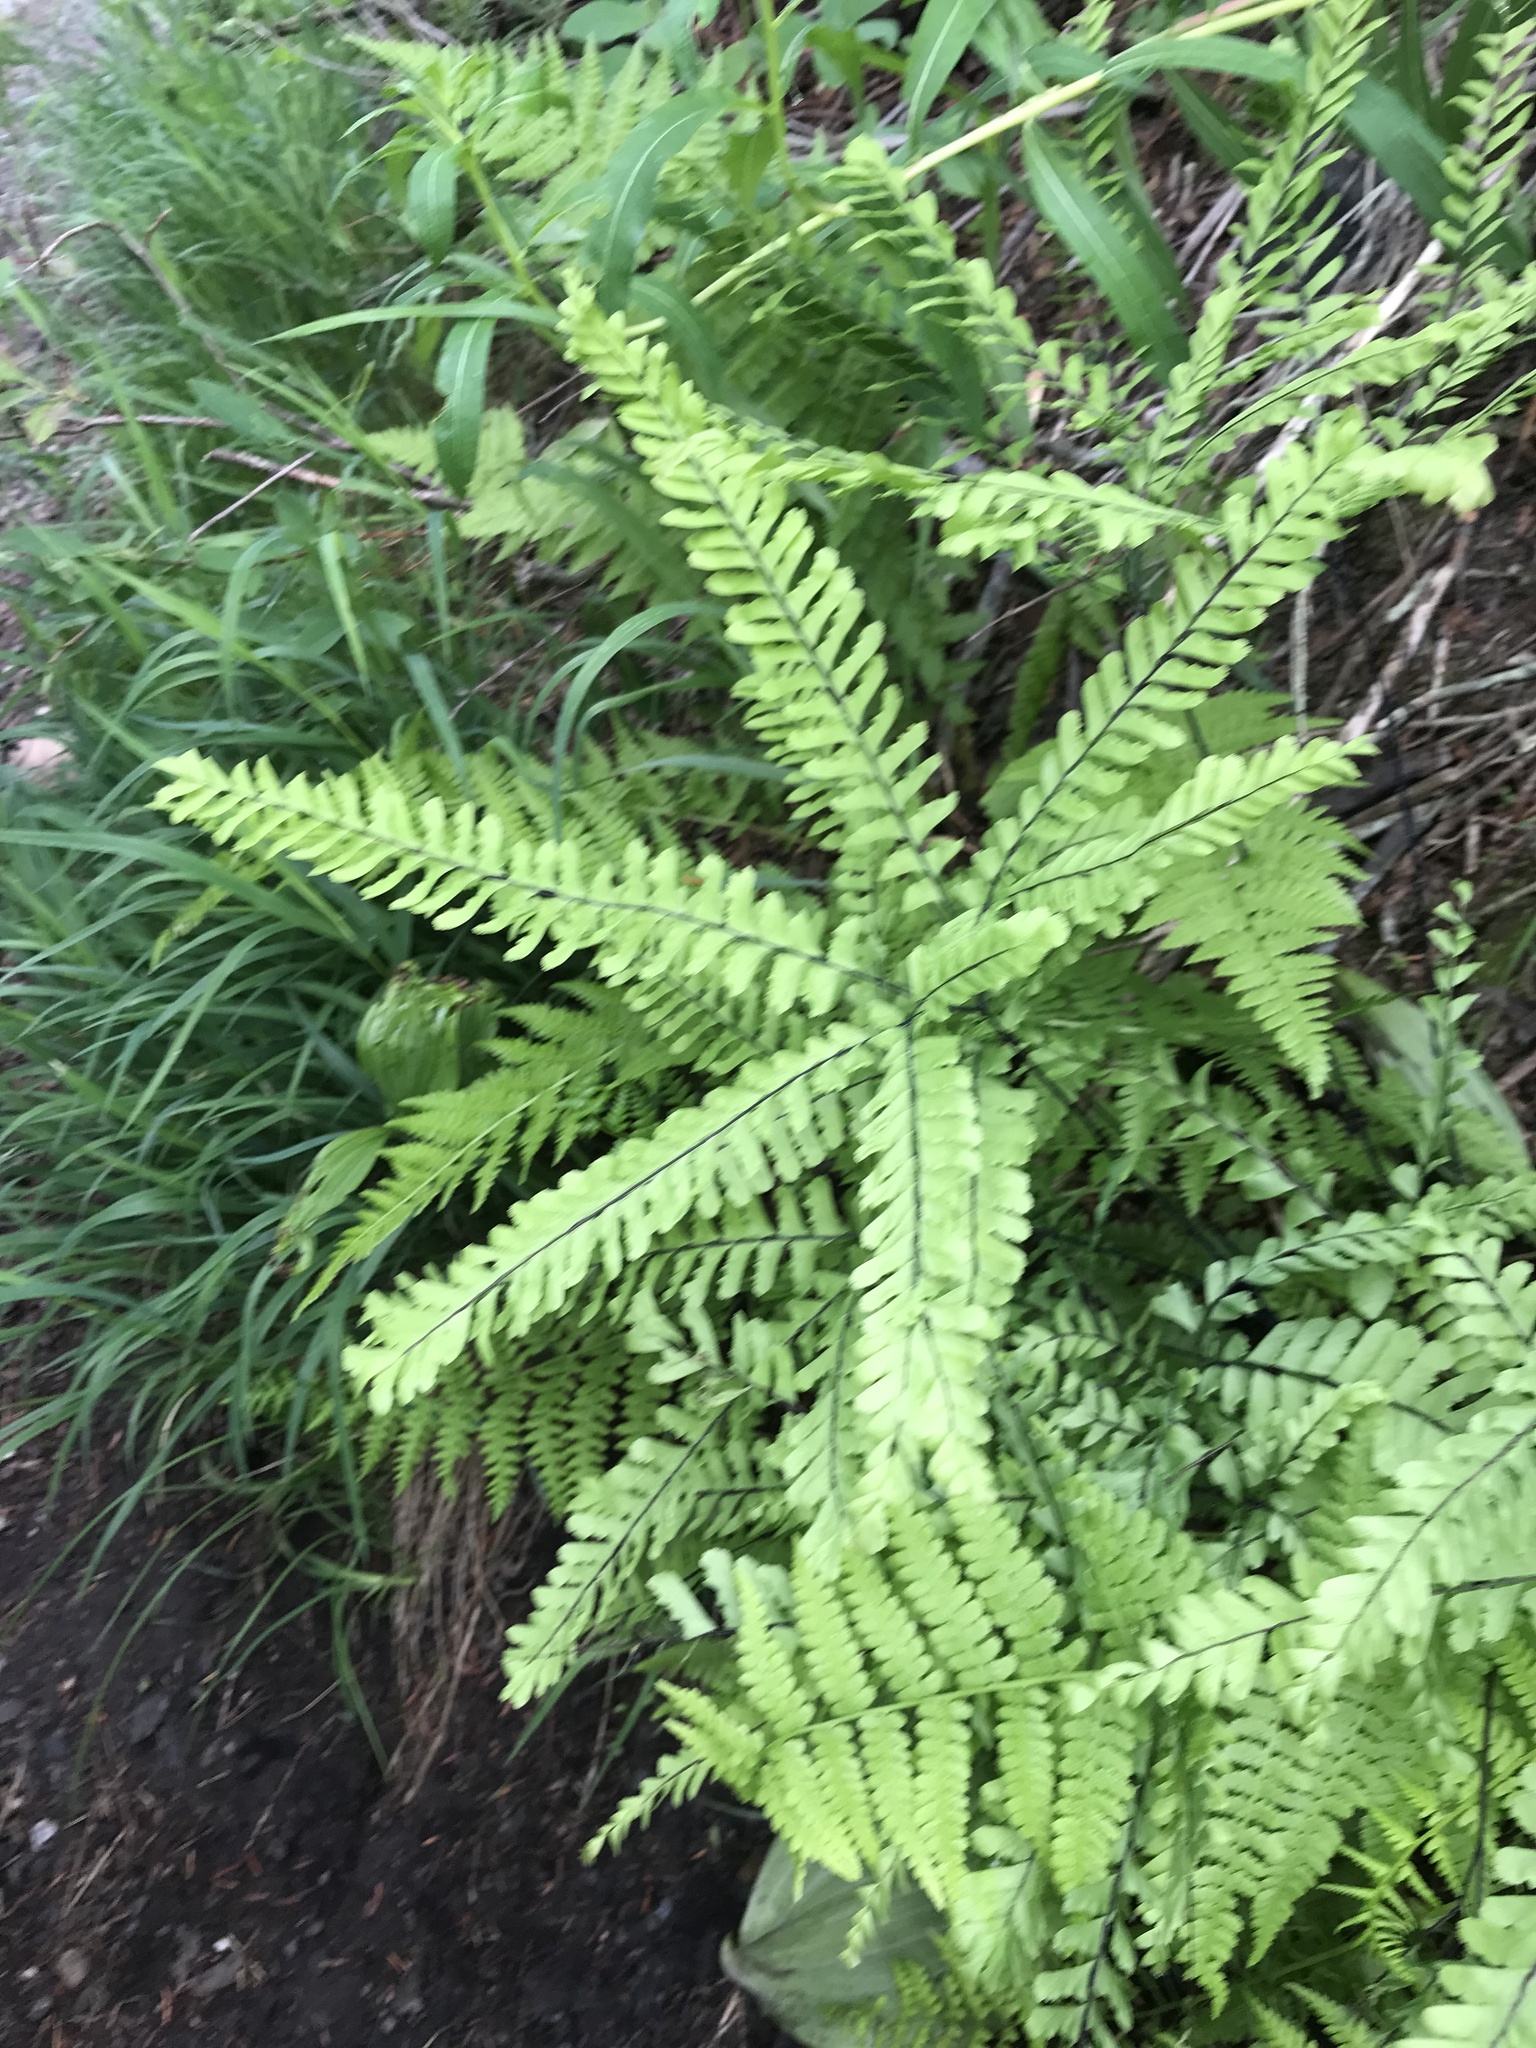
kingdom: Plantae
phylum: Tracheophyta
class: Polypodiopsida
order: Polypodiales
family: Pteridaceae
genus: Adiantum
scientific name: Adiantum aleuticum
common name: Aleutian maidenhair fern
